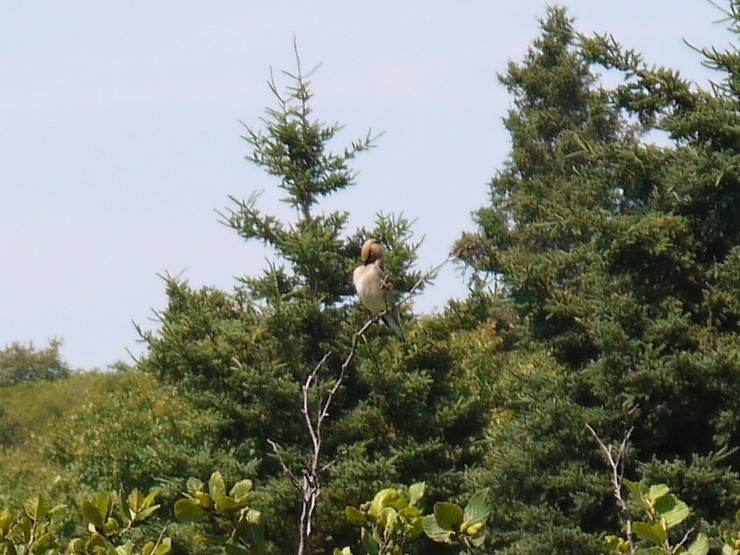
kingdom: Animalia
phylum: Chordata
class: Aves
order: Passeriformes
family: Bombycillidae
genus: Bombycilla
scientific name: Bombycilla cedrorum
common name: Cedar waxwing
